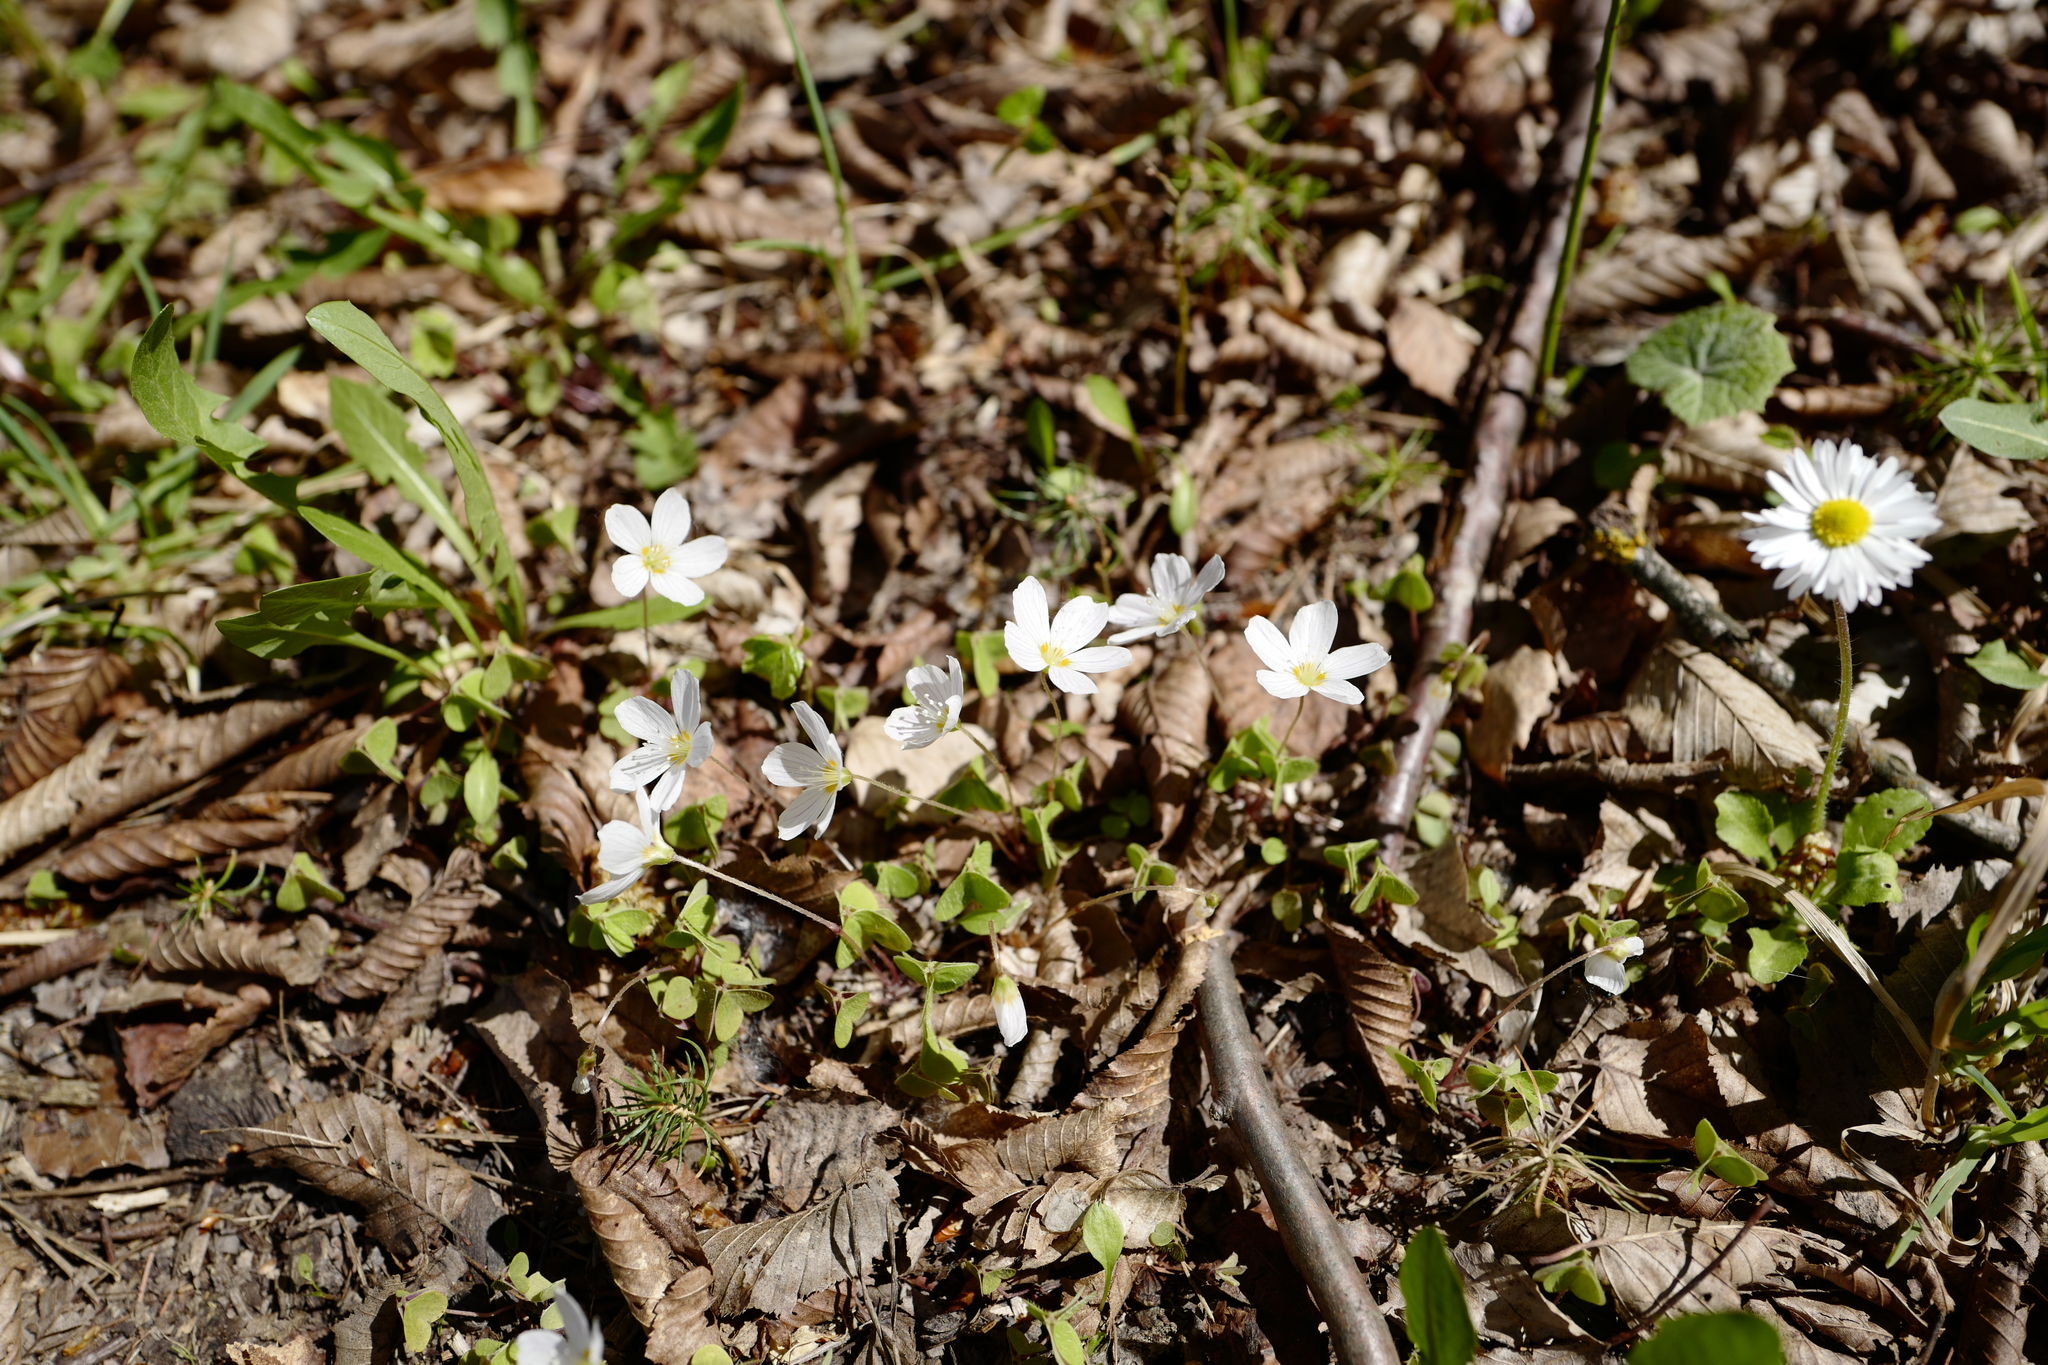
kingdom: Plantae
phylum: Tracheophyta
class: Magnoliopsida
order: Oxalidales
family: Oxalidaceae
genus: Oxalis
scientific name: Oxalis acetosella
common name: Wood-sorrel
